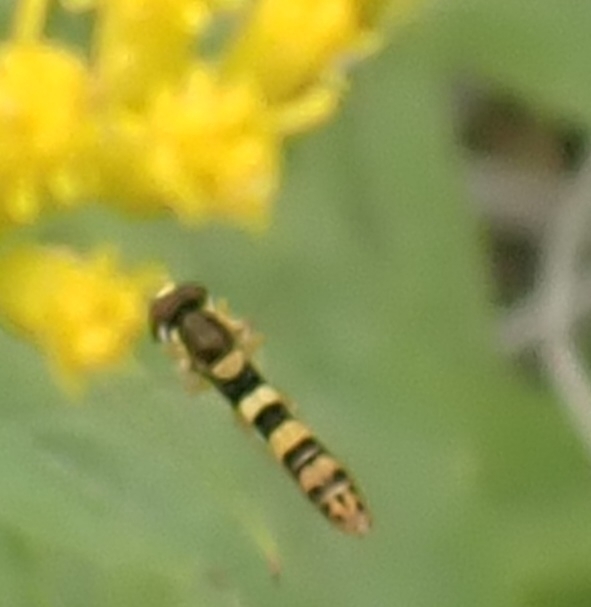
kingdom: Animalia
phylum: Arthropoda
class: Insecta
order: Diptera
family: Syrphidae
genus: Sphaerophoria
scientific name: Sphaerophoria scripta
